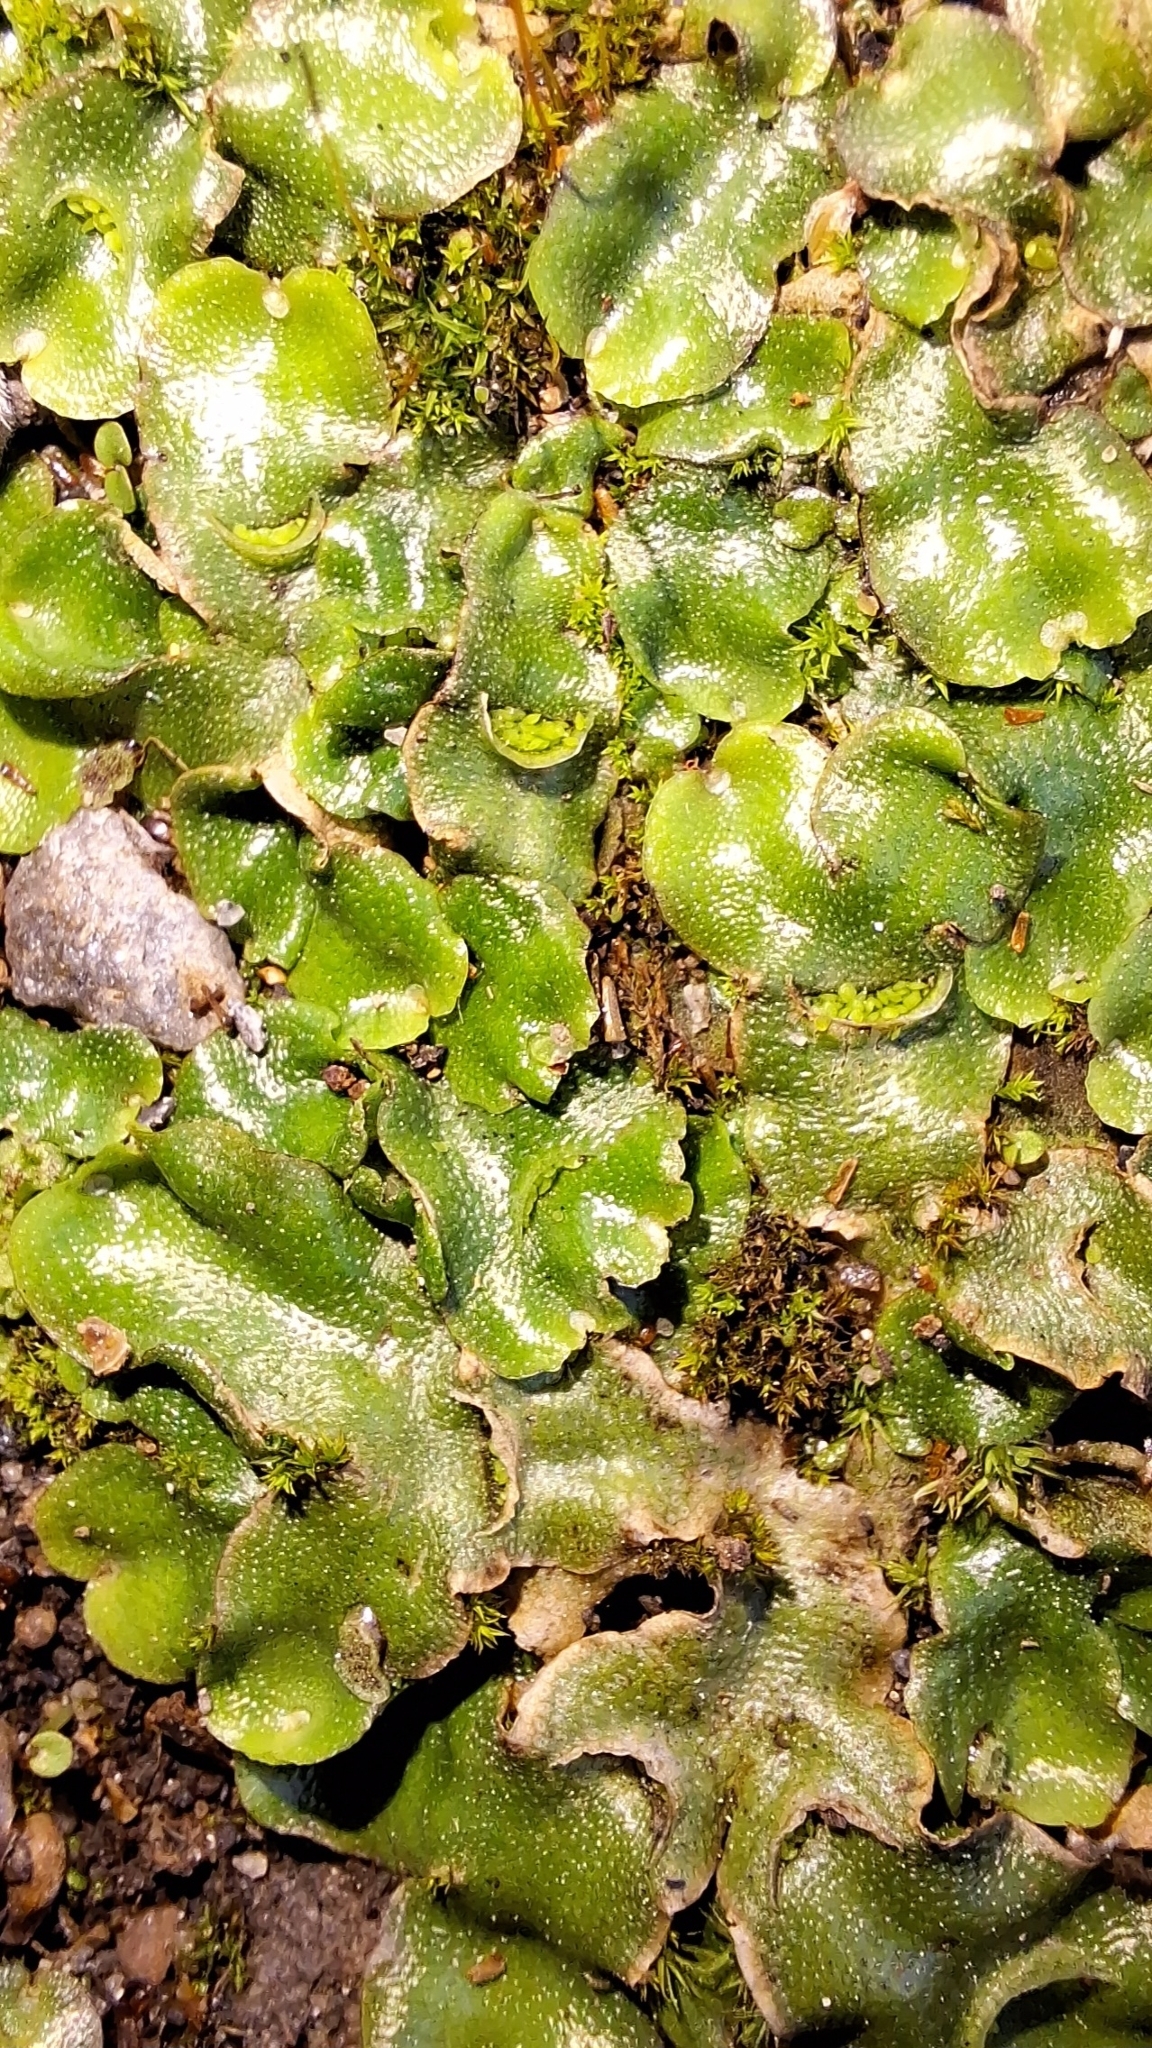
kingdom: Plantae
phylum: Marchantiophyta
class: Marchantiopsida
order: Lunulariales
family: Lunulariaceae
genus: Lunularia
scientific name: Lunularia cruciata
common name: Crescent-cup liverwort
